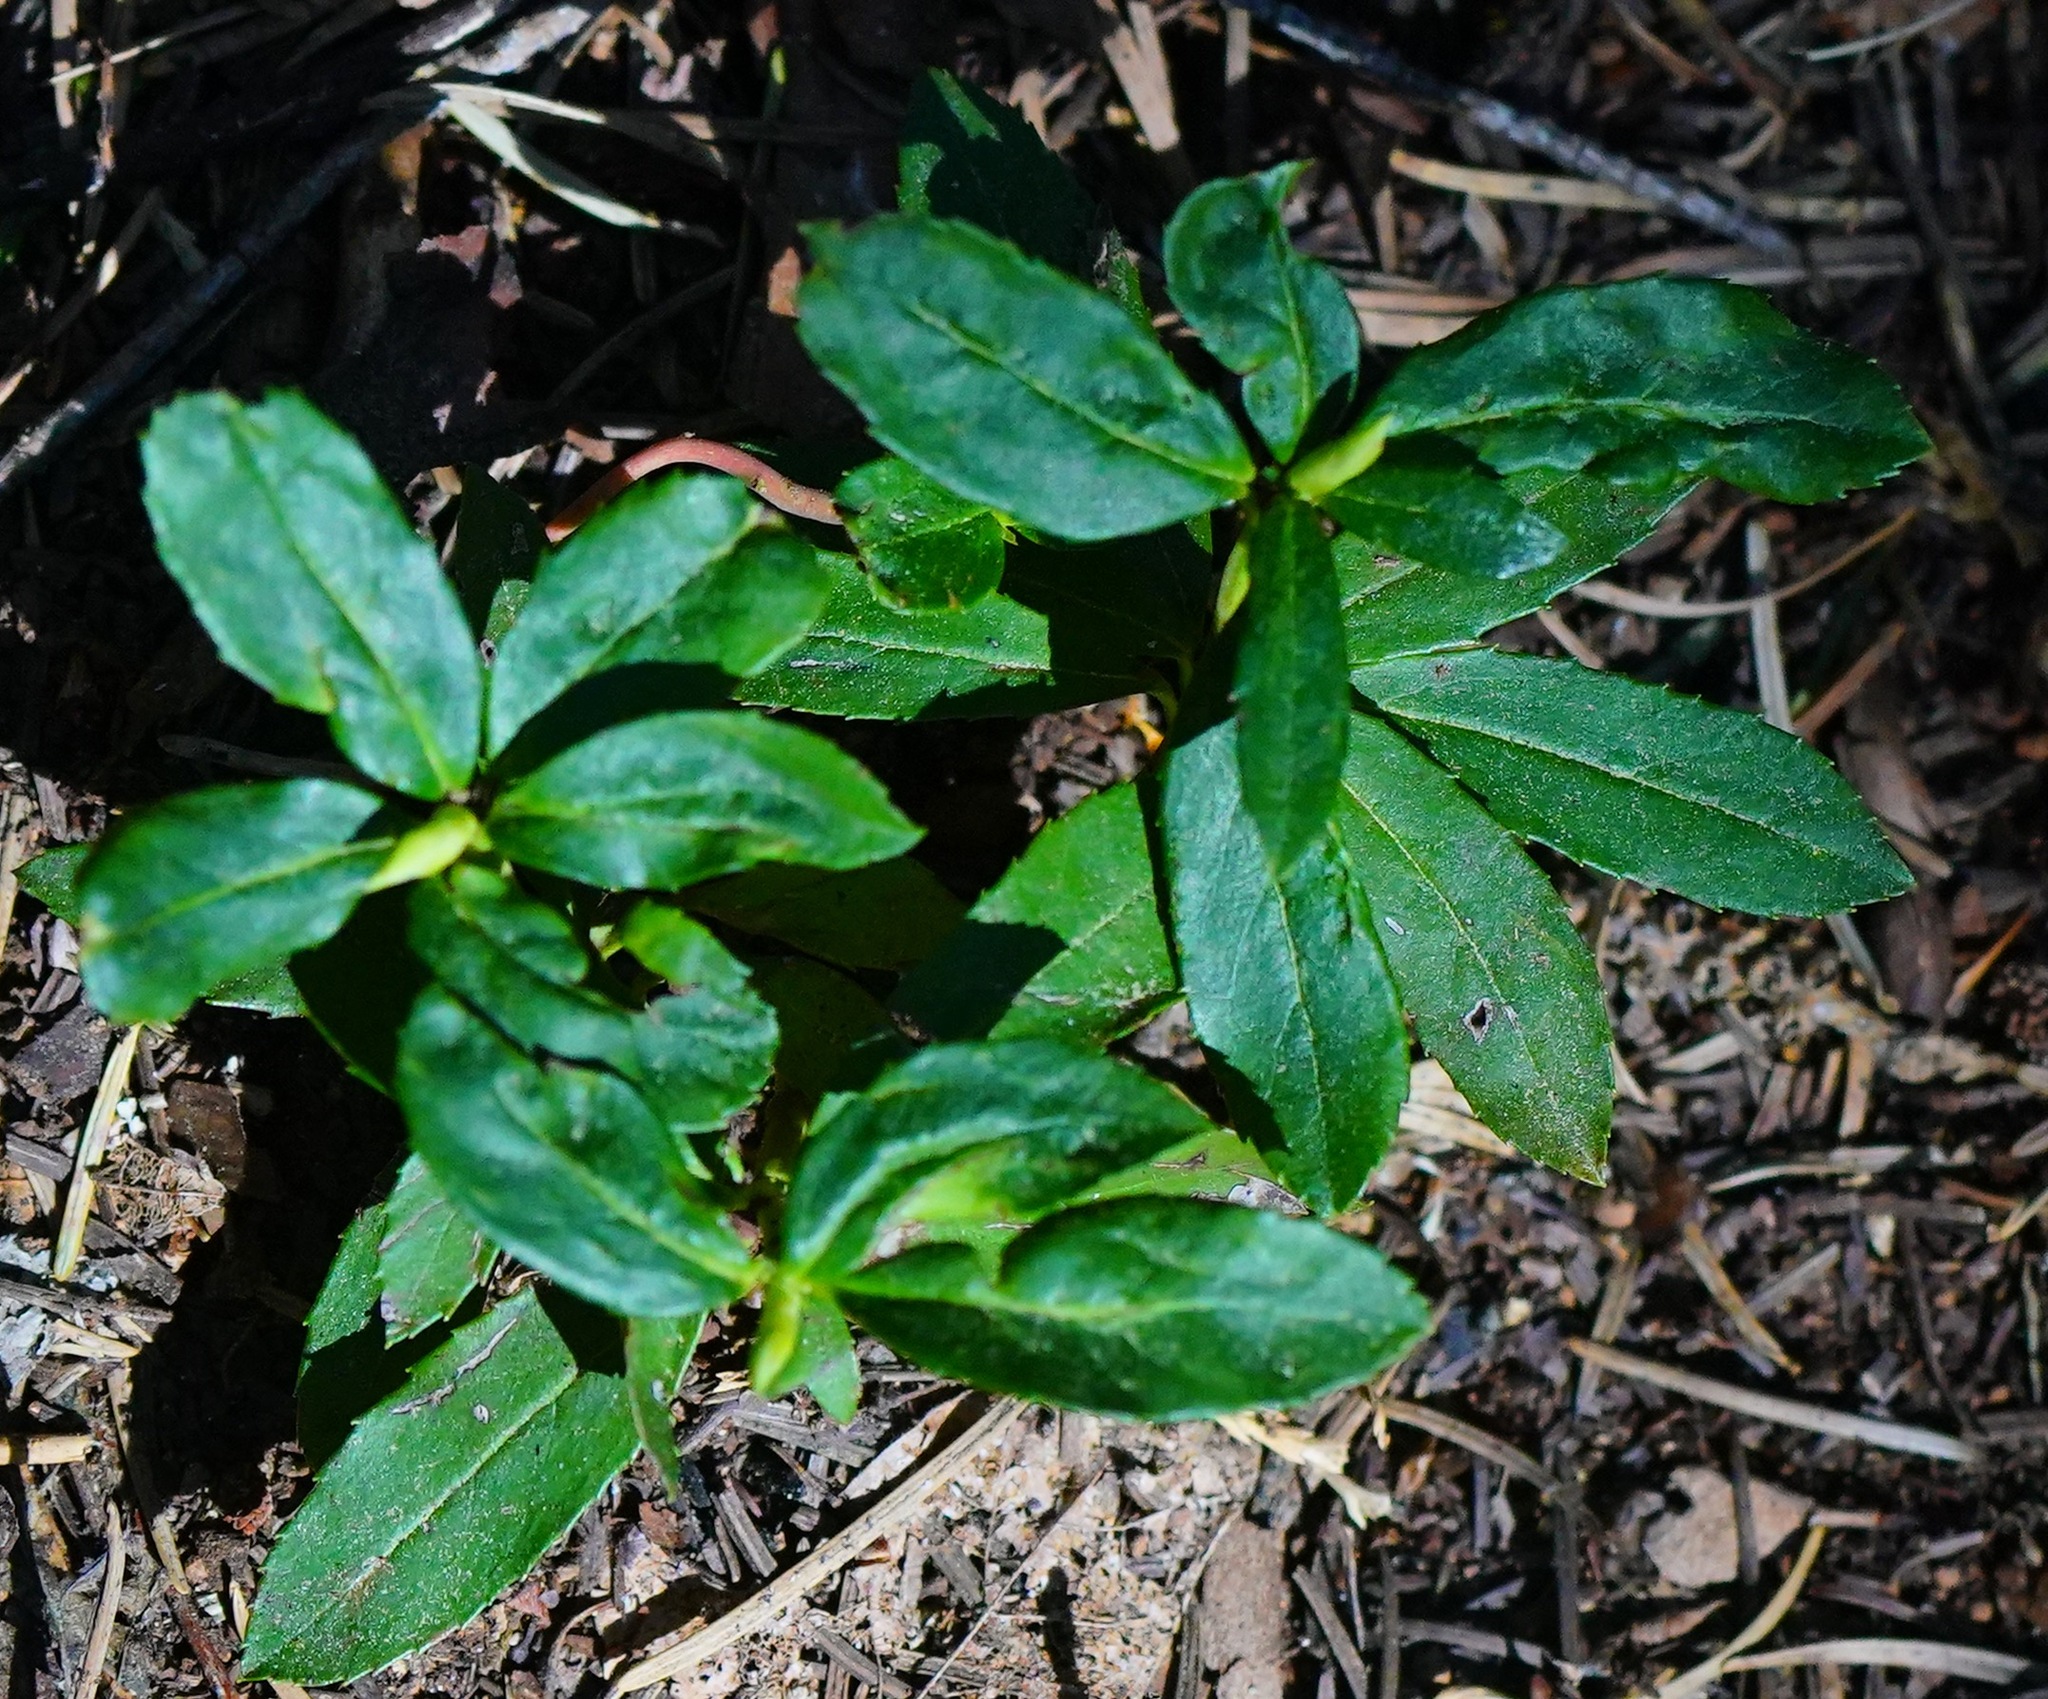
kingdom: Plantae
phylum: Tracheophyta
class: Magnoliopsida
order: Ericales
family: Ericaceae
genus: Chimaphila
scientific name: Chimaphila umbellata
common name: Pipsissewa
